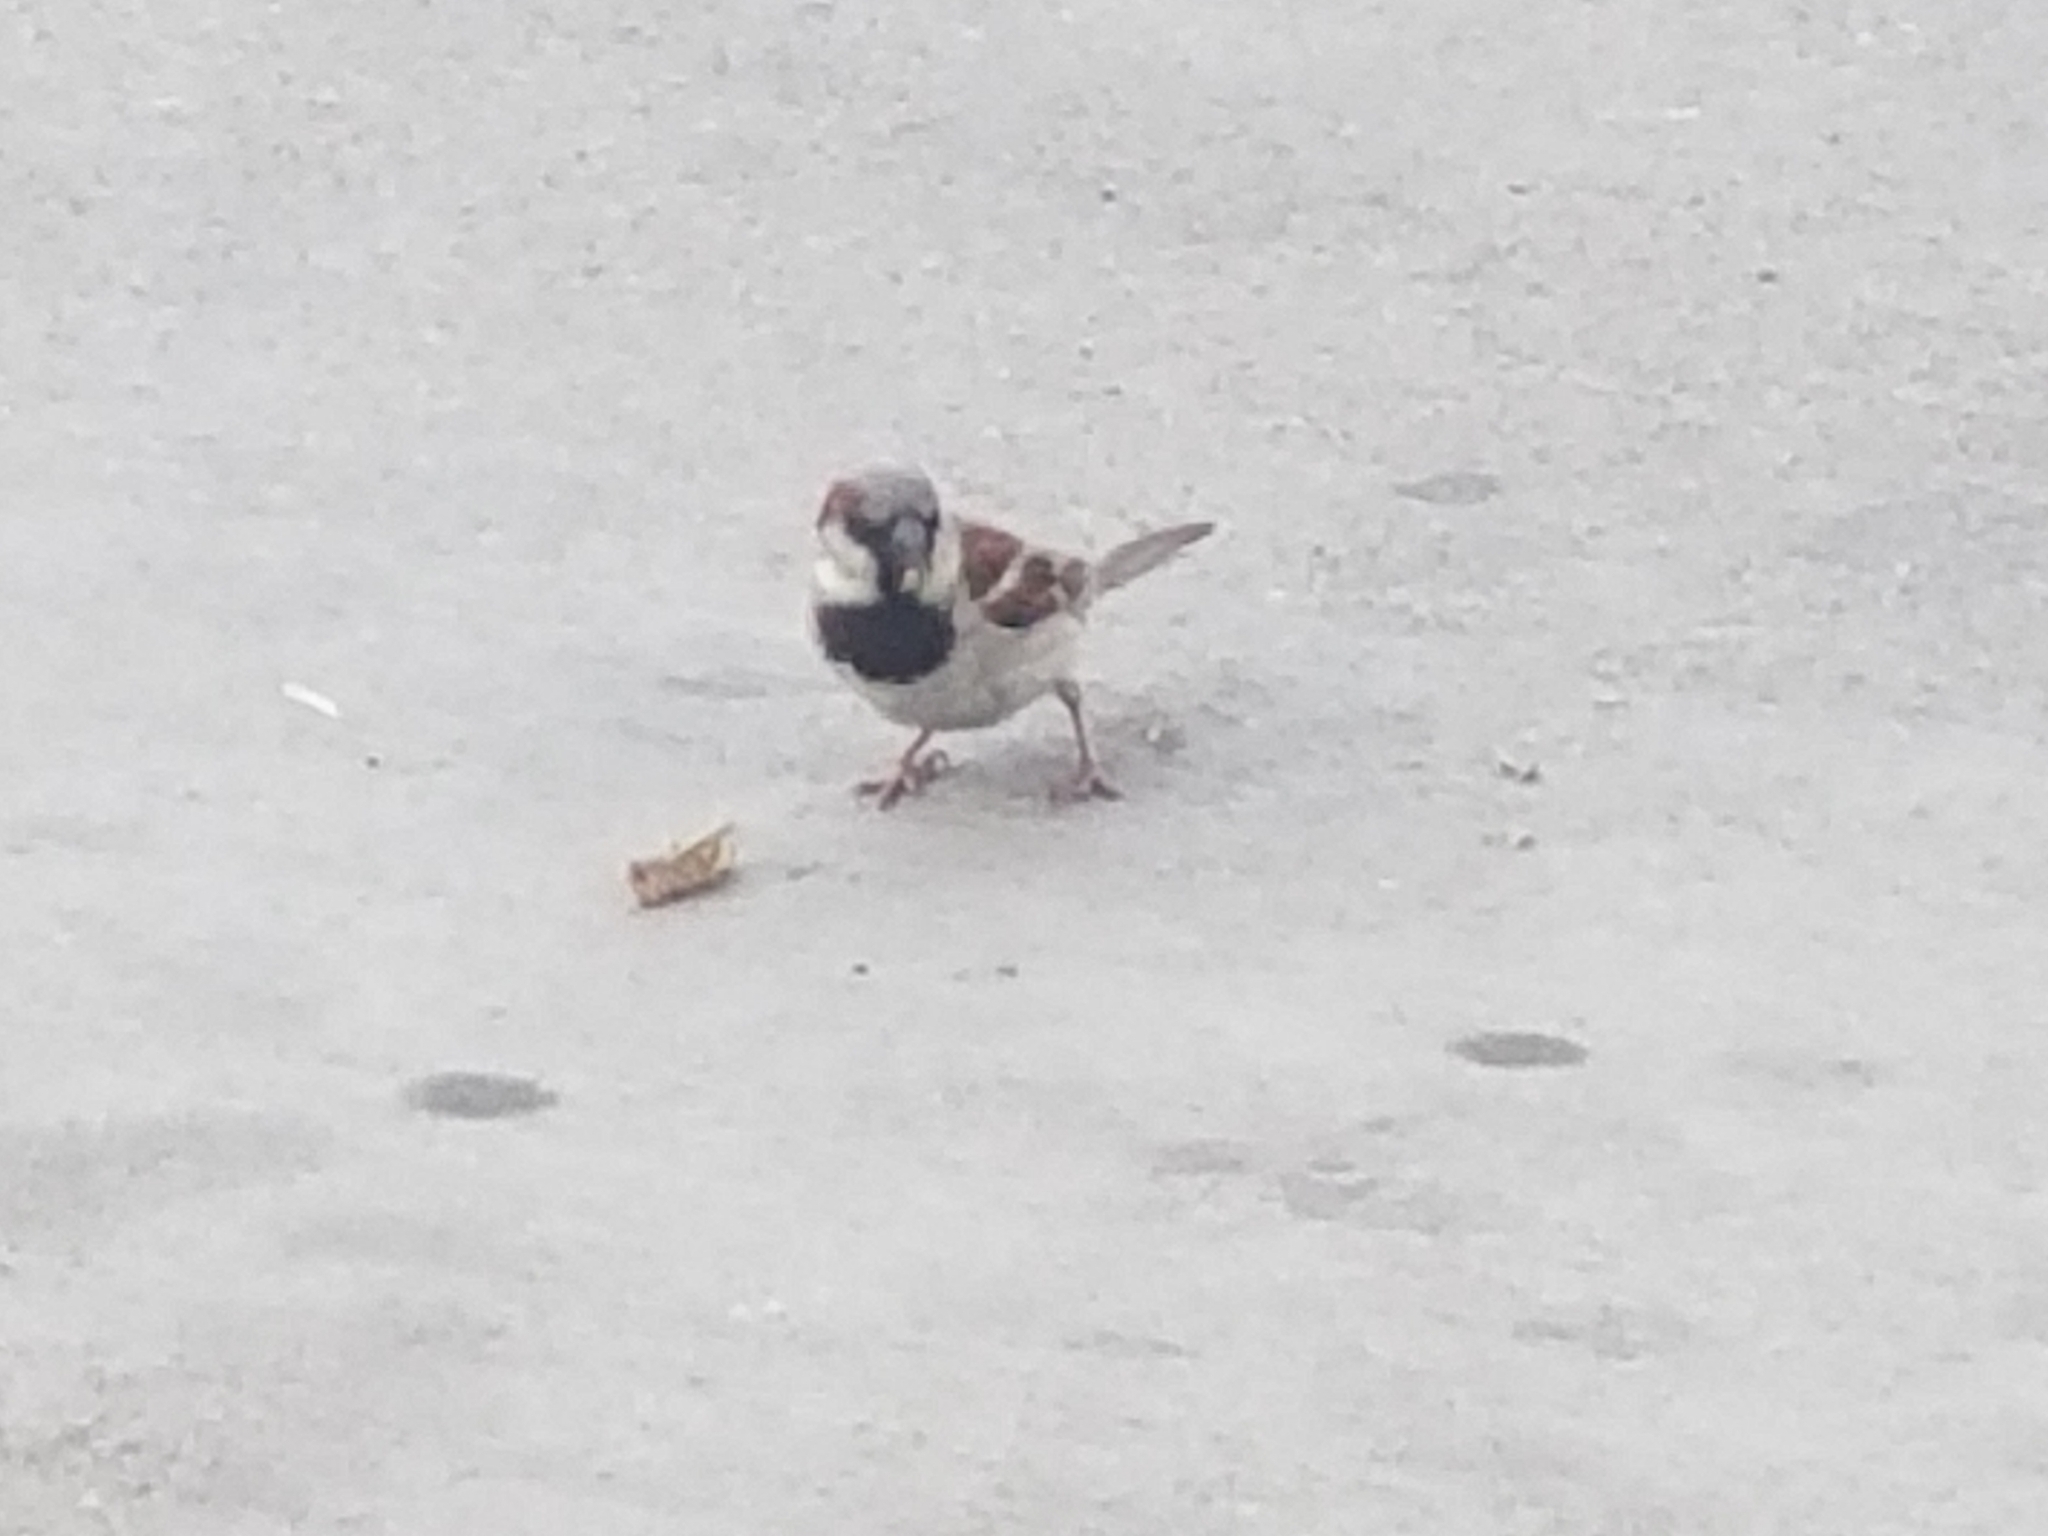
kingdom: Animalia
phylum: Chordata
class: Aves
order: Passeriformes
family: Passeridae
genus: Passer
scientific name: Passer domesticus
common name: House sparrow
